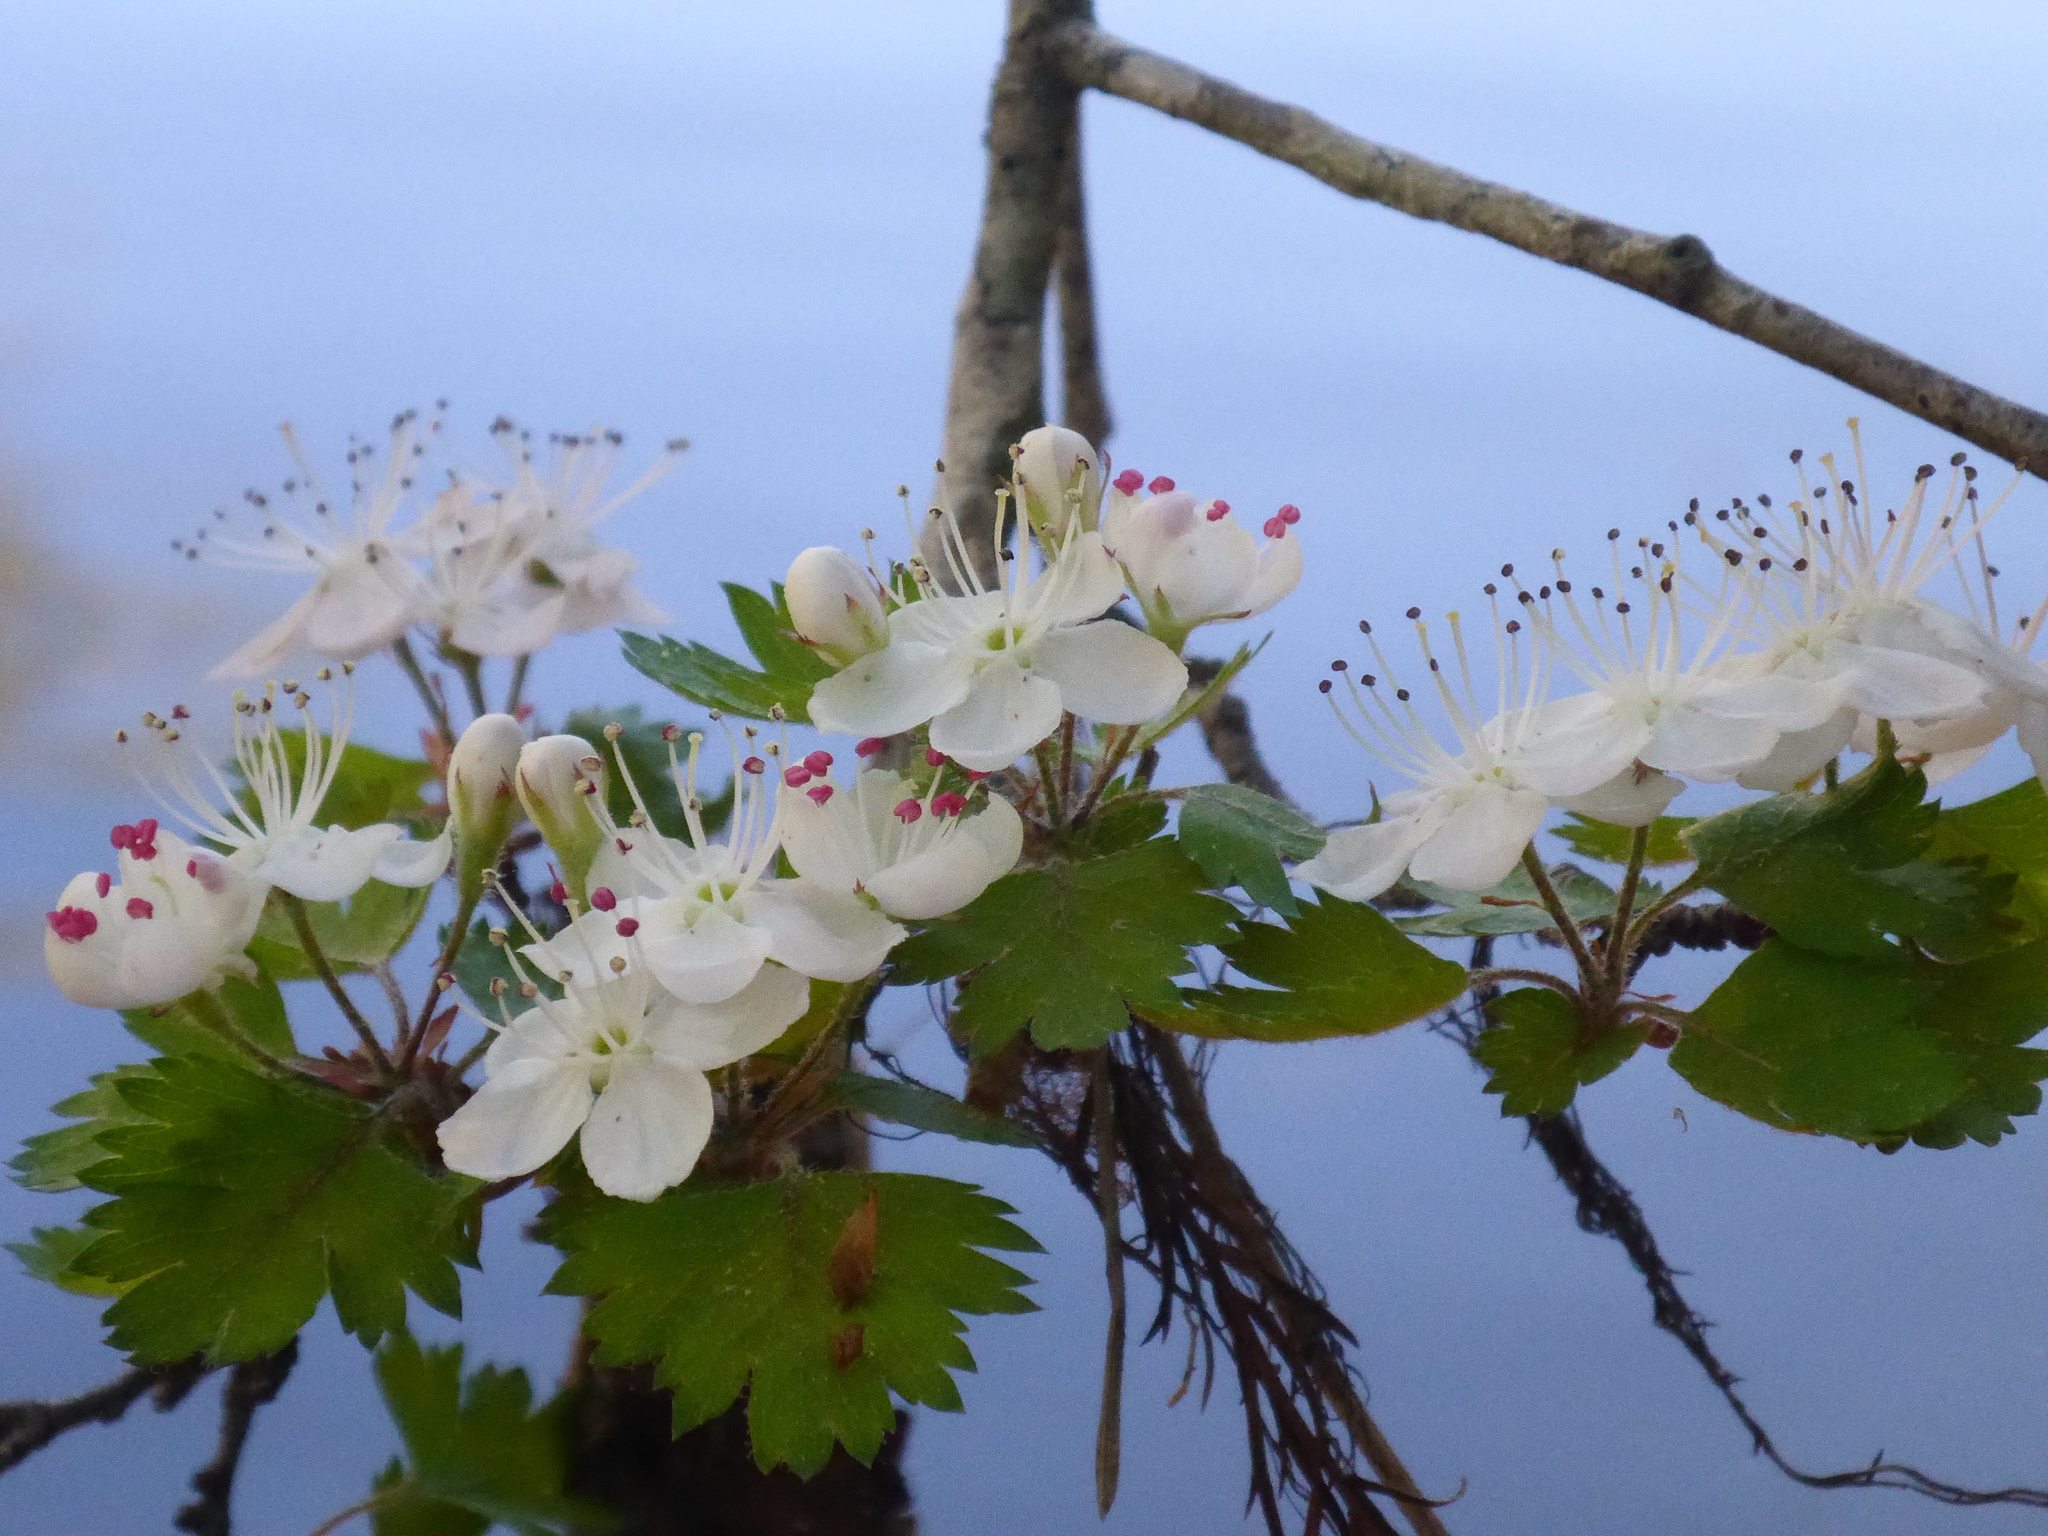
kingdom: Plantae
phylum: Tracheophyta
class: Magnoliopsida
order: Rosales
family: Rosaceae
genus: Crataegus
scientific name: Crataegus marshallii
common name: Parsley-hawthorn
